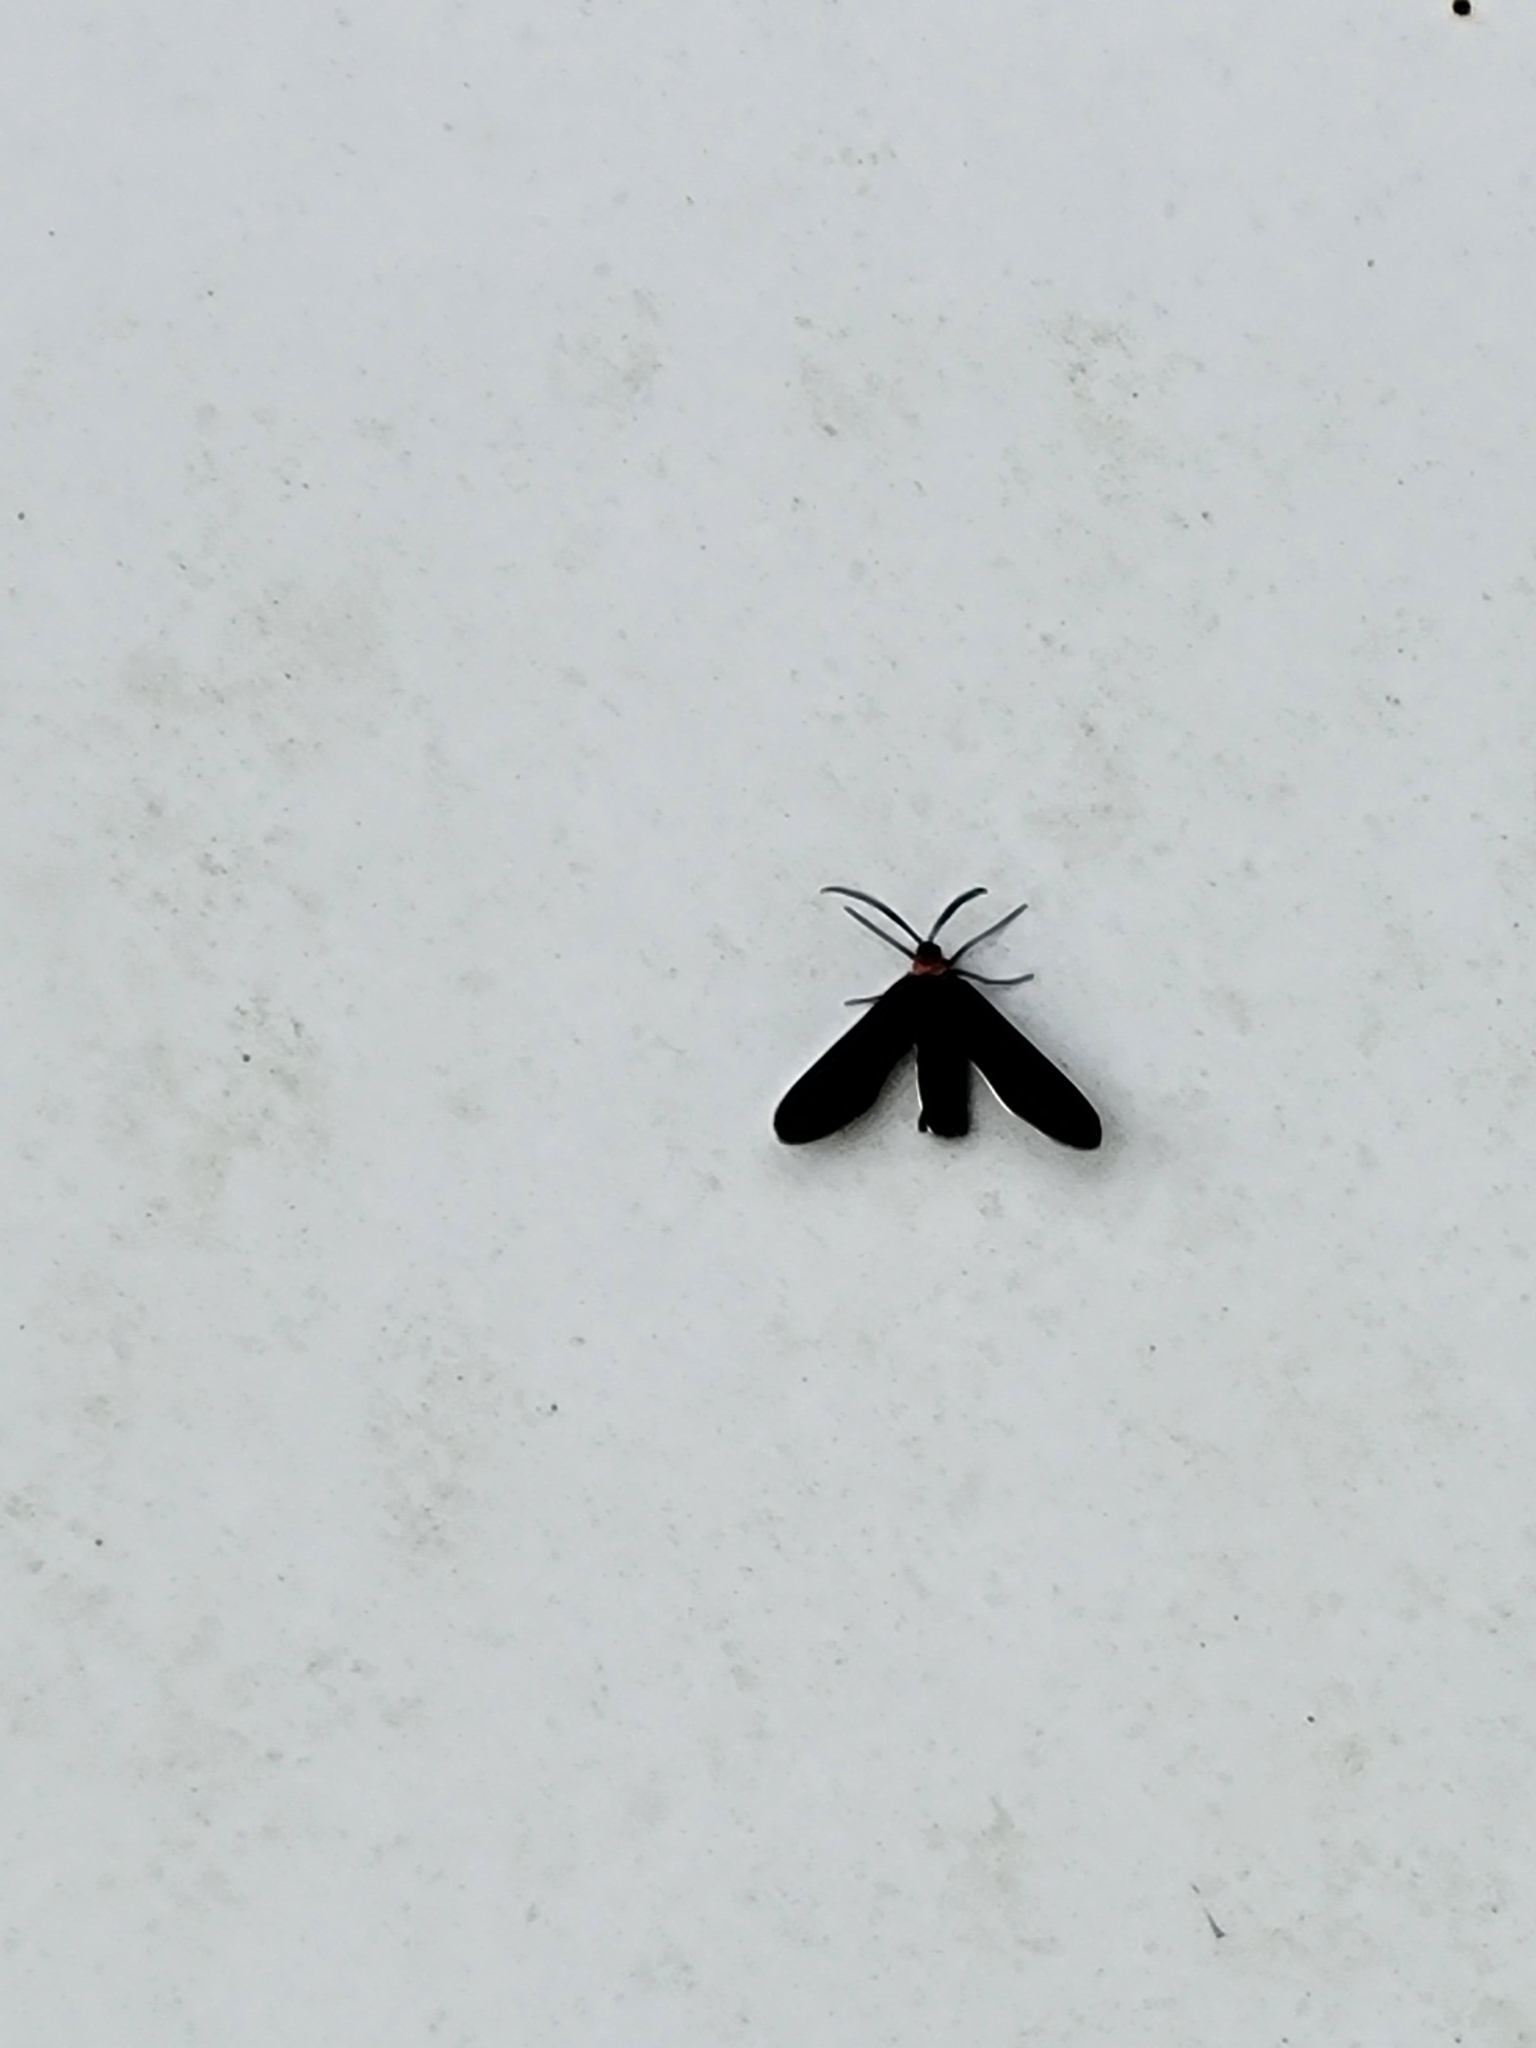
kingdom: Animalia
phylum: Arthropoda
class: Insecta
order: Lepidoptera
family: Zygaenidae
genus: Harrisina
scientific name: Harrisina americana
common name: Grapeleaf skeletonizer moth
